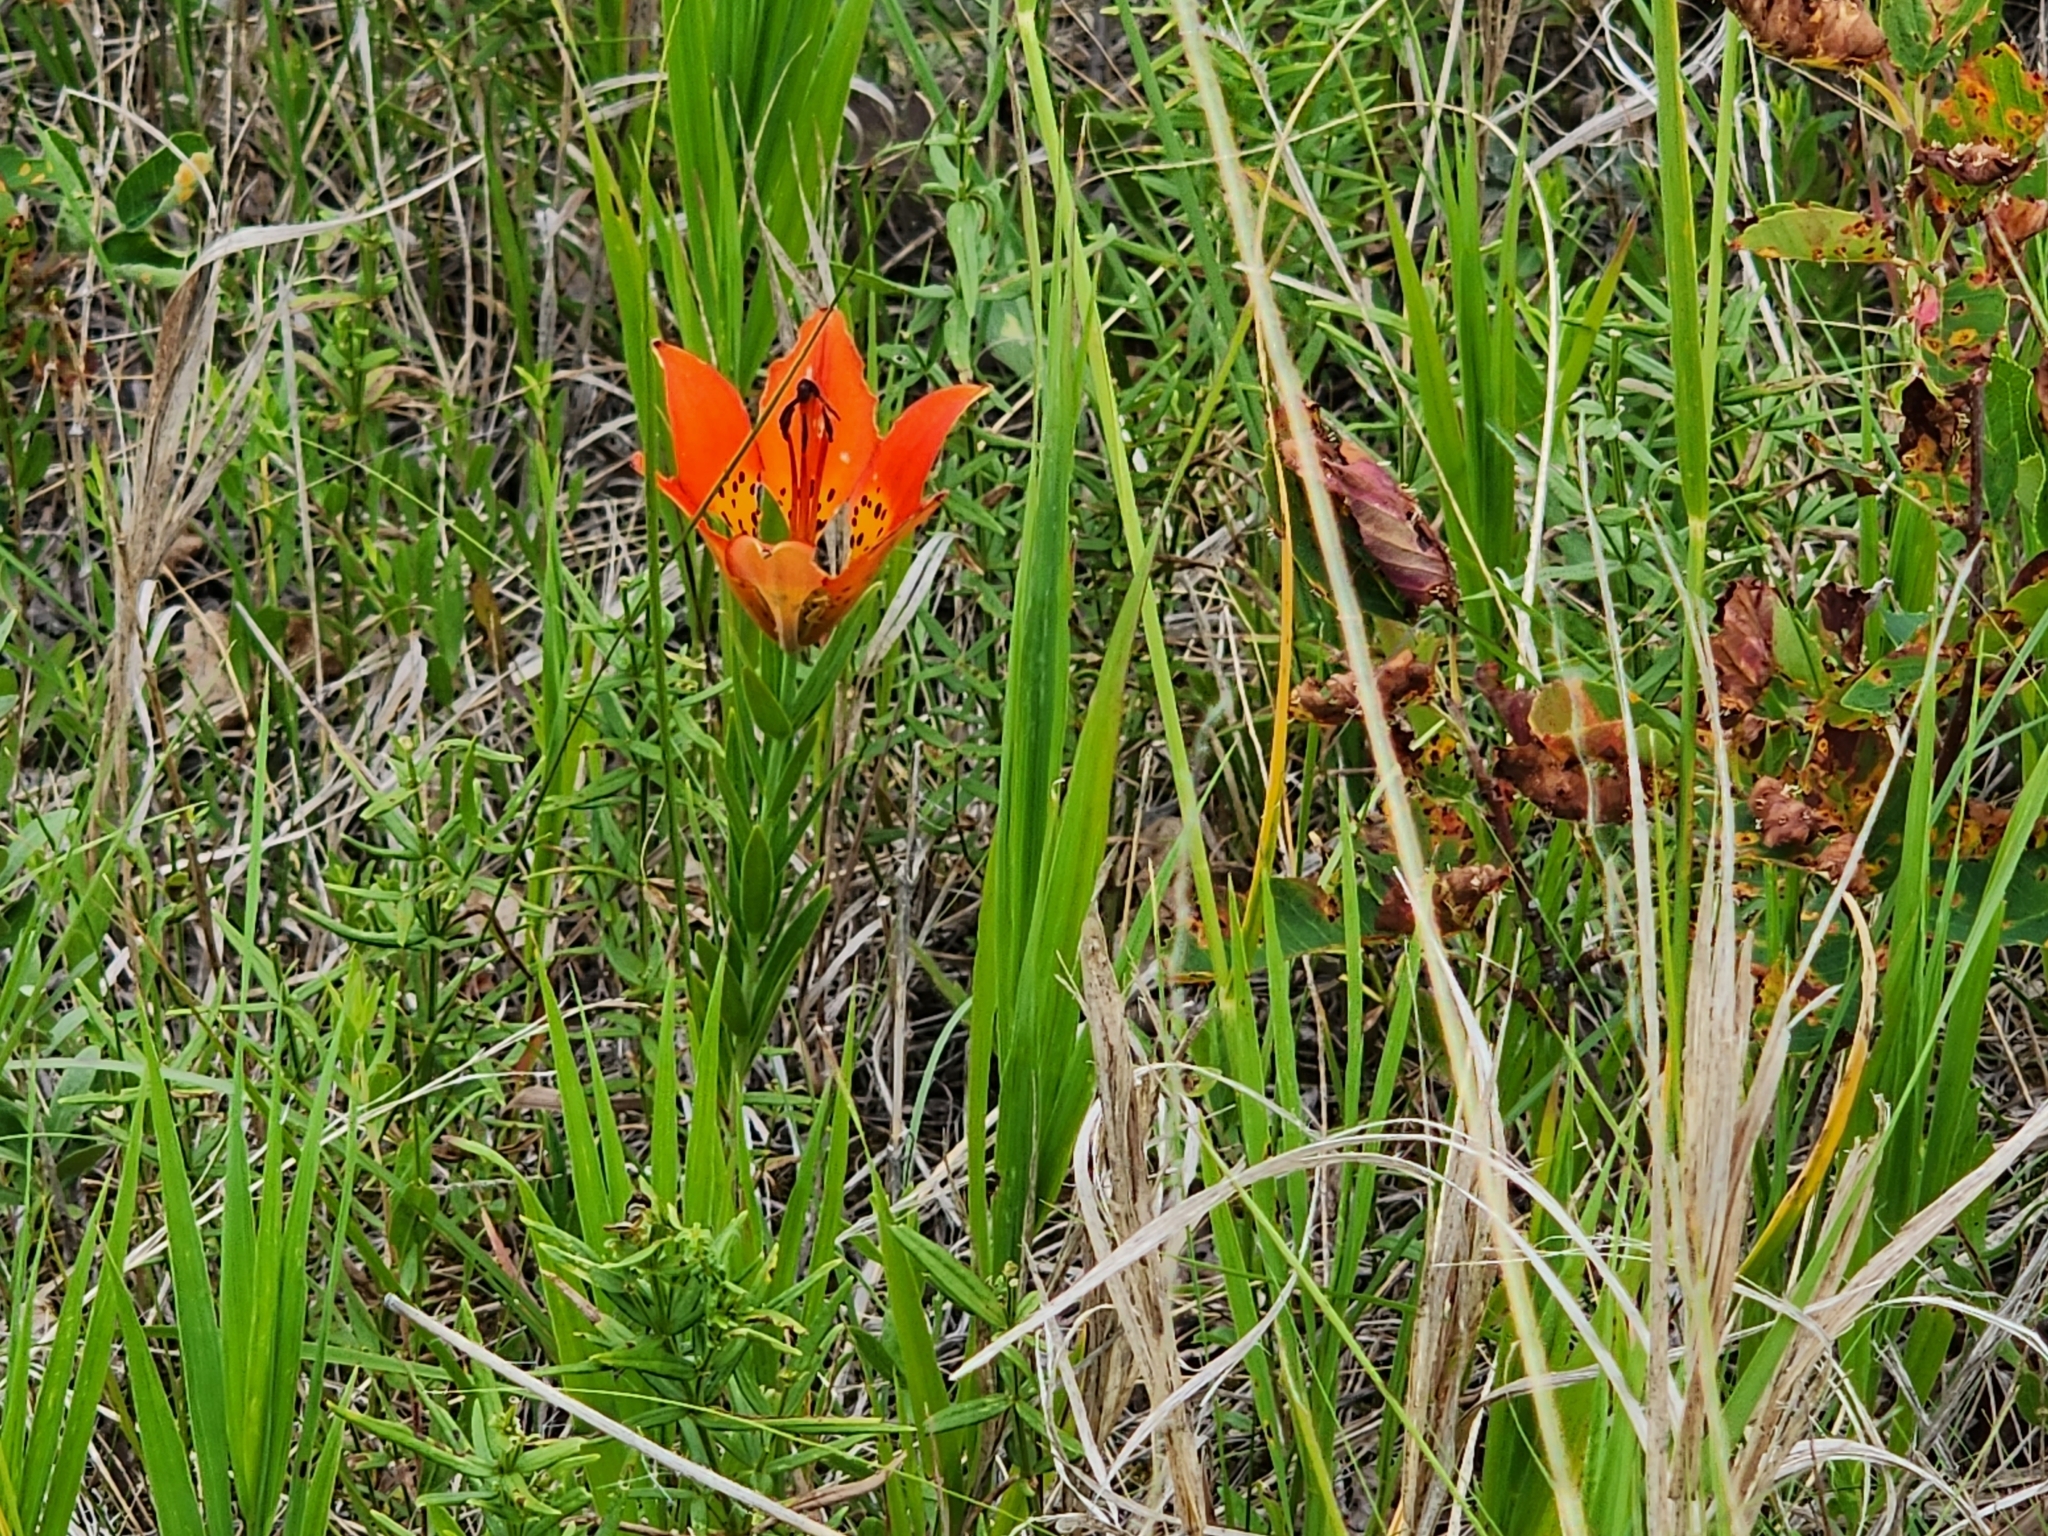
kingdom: Plantae
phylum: Tracheophyta
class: Liliopsida
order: Liliales
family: Liliaceae
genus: Lilium
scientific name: Lilium philadelphicum
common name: Red lily
